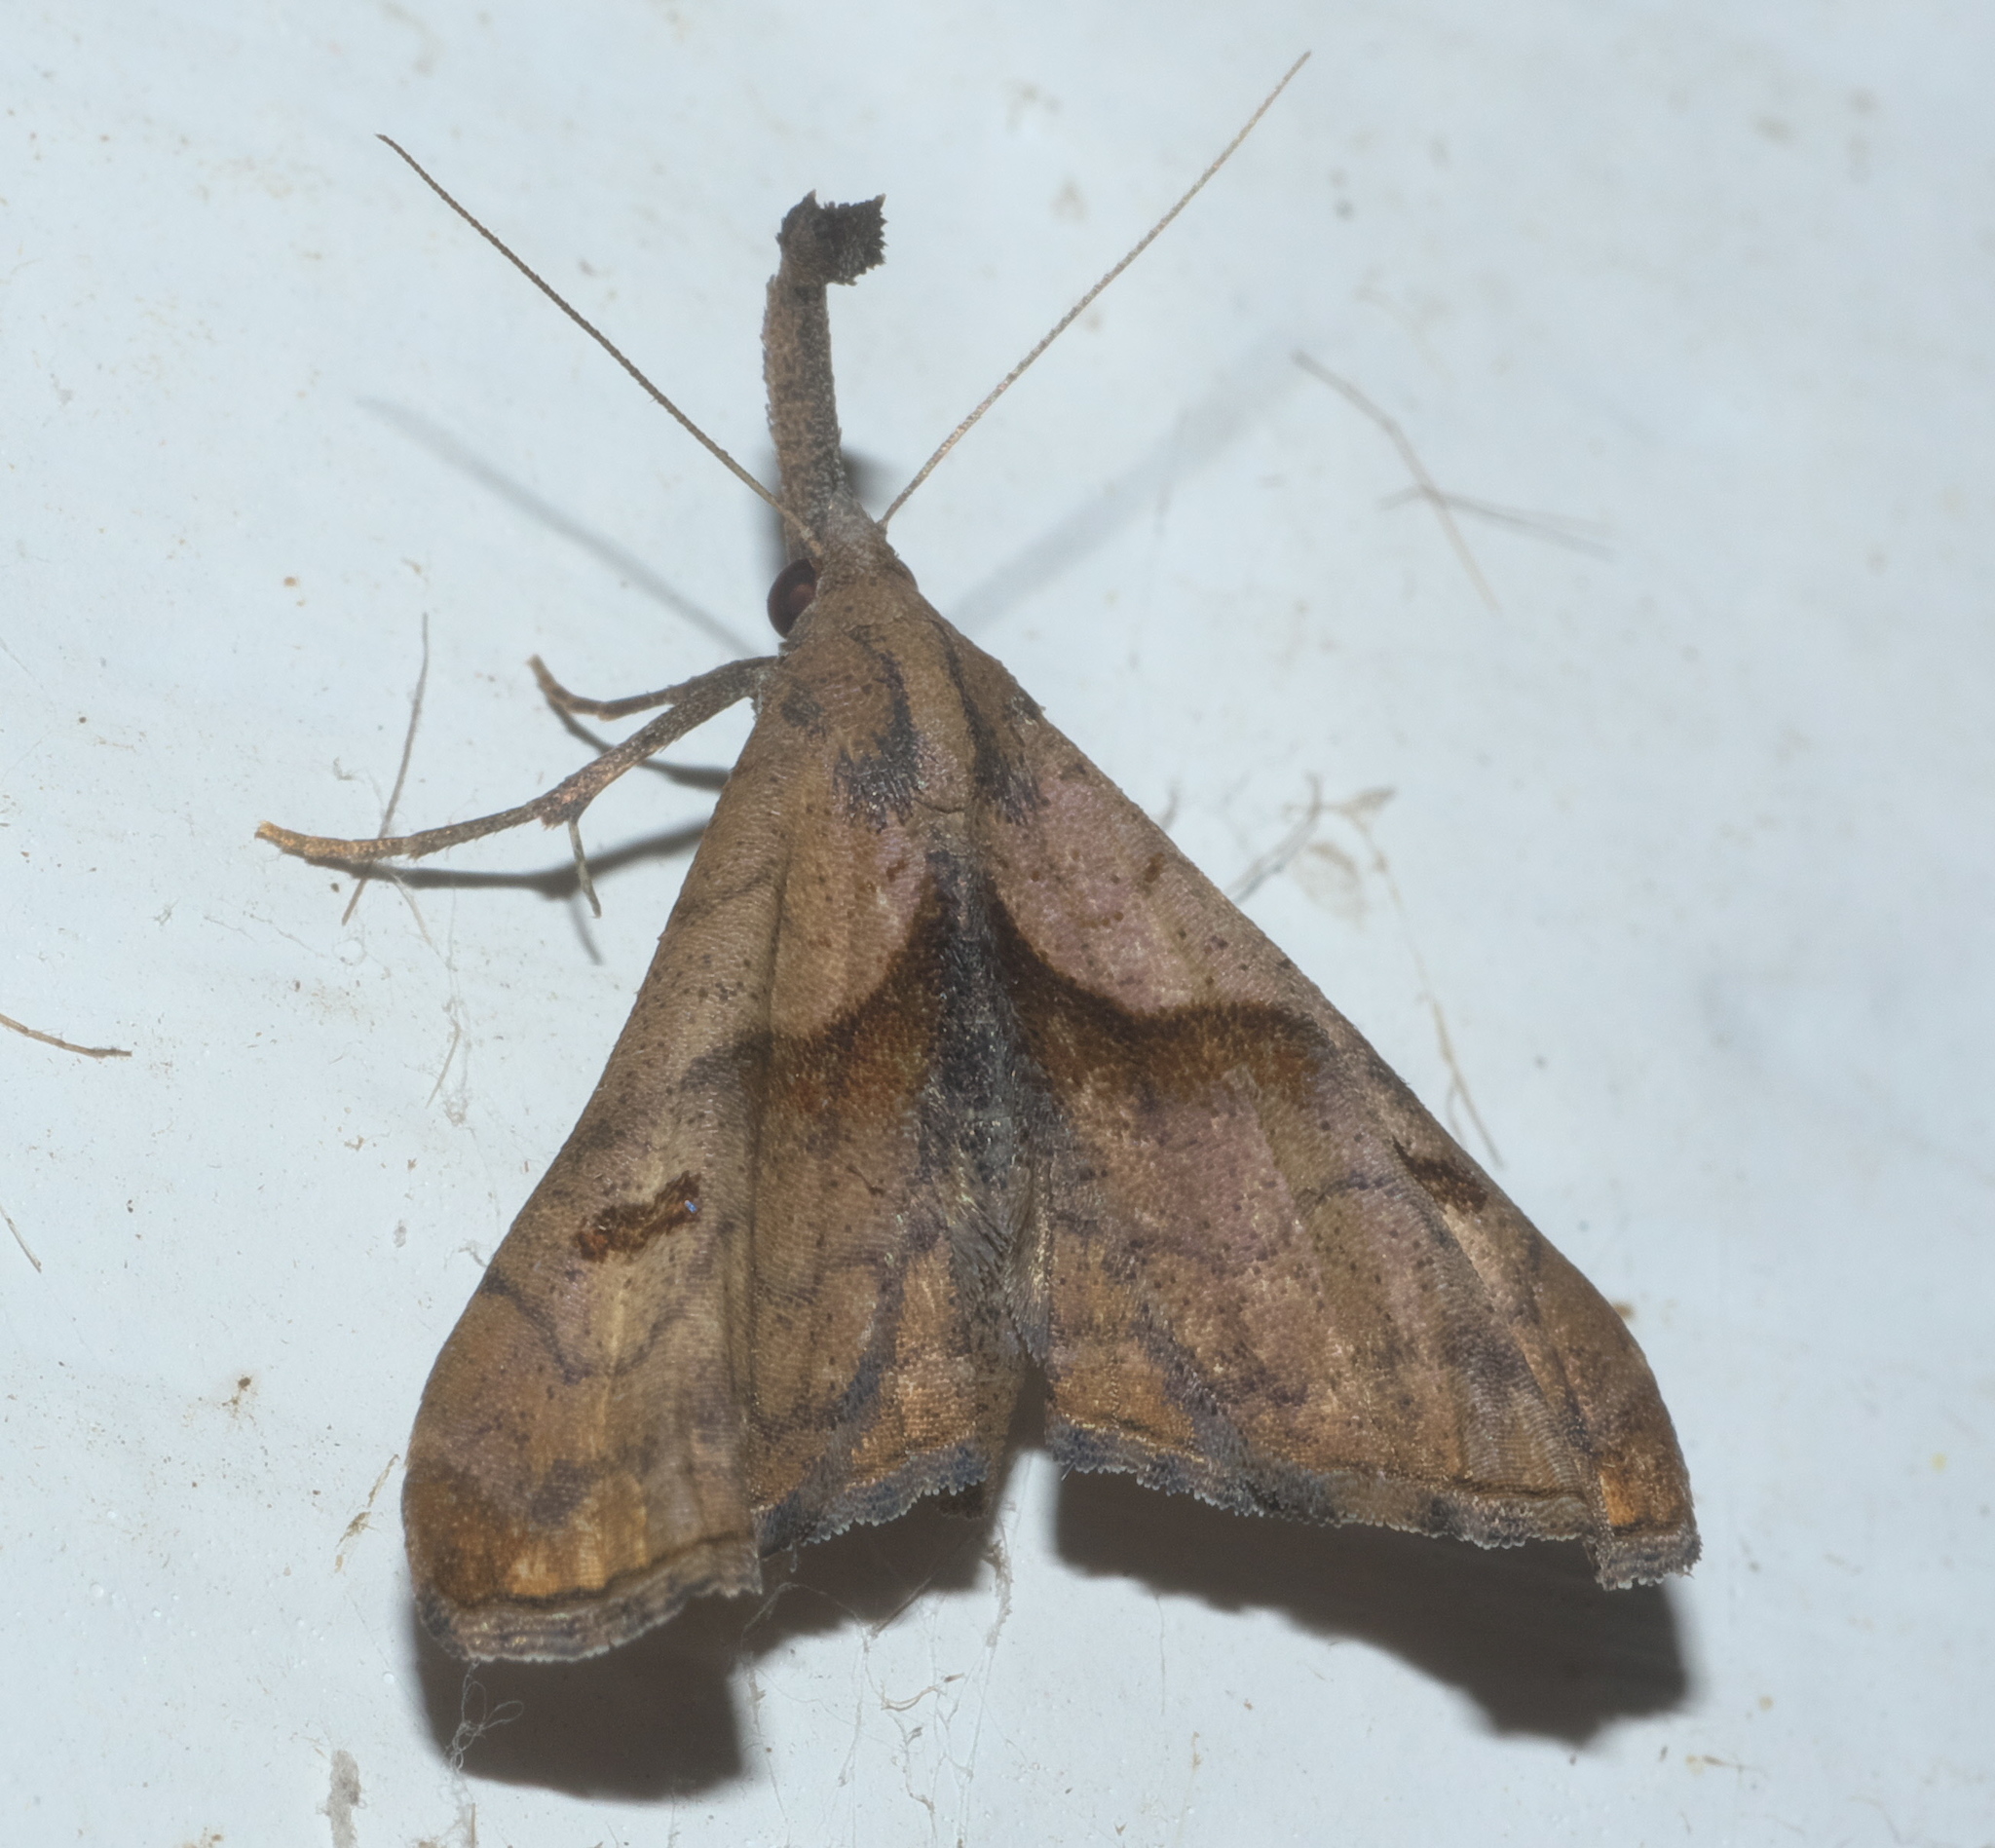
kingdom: Animalia
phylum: Arthropoda
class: Insecta
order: Lepidoptera
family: Erebidae
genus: Palthis
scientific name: Palthis angulalis
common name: Dark-spotted palthis moth
